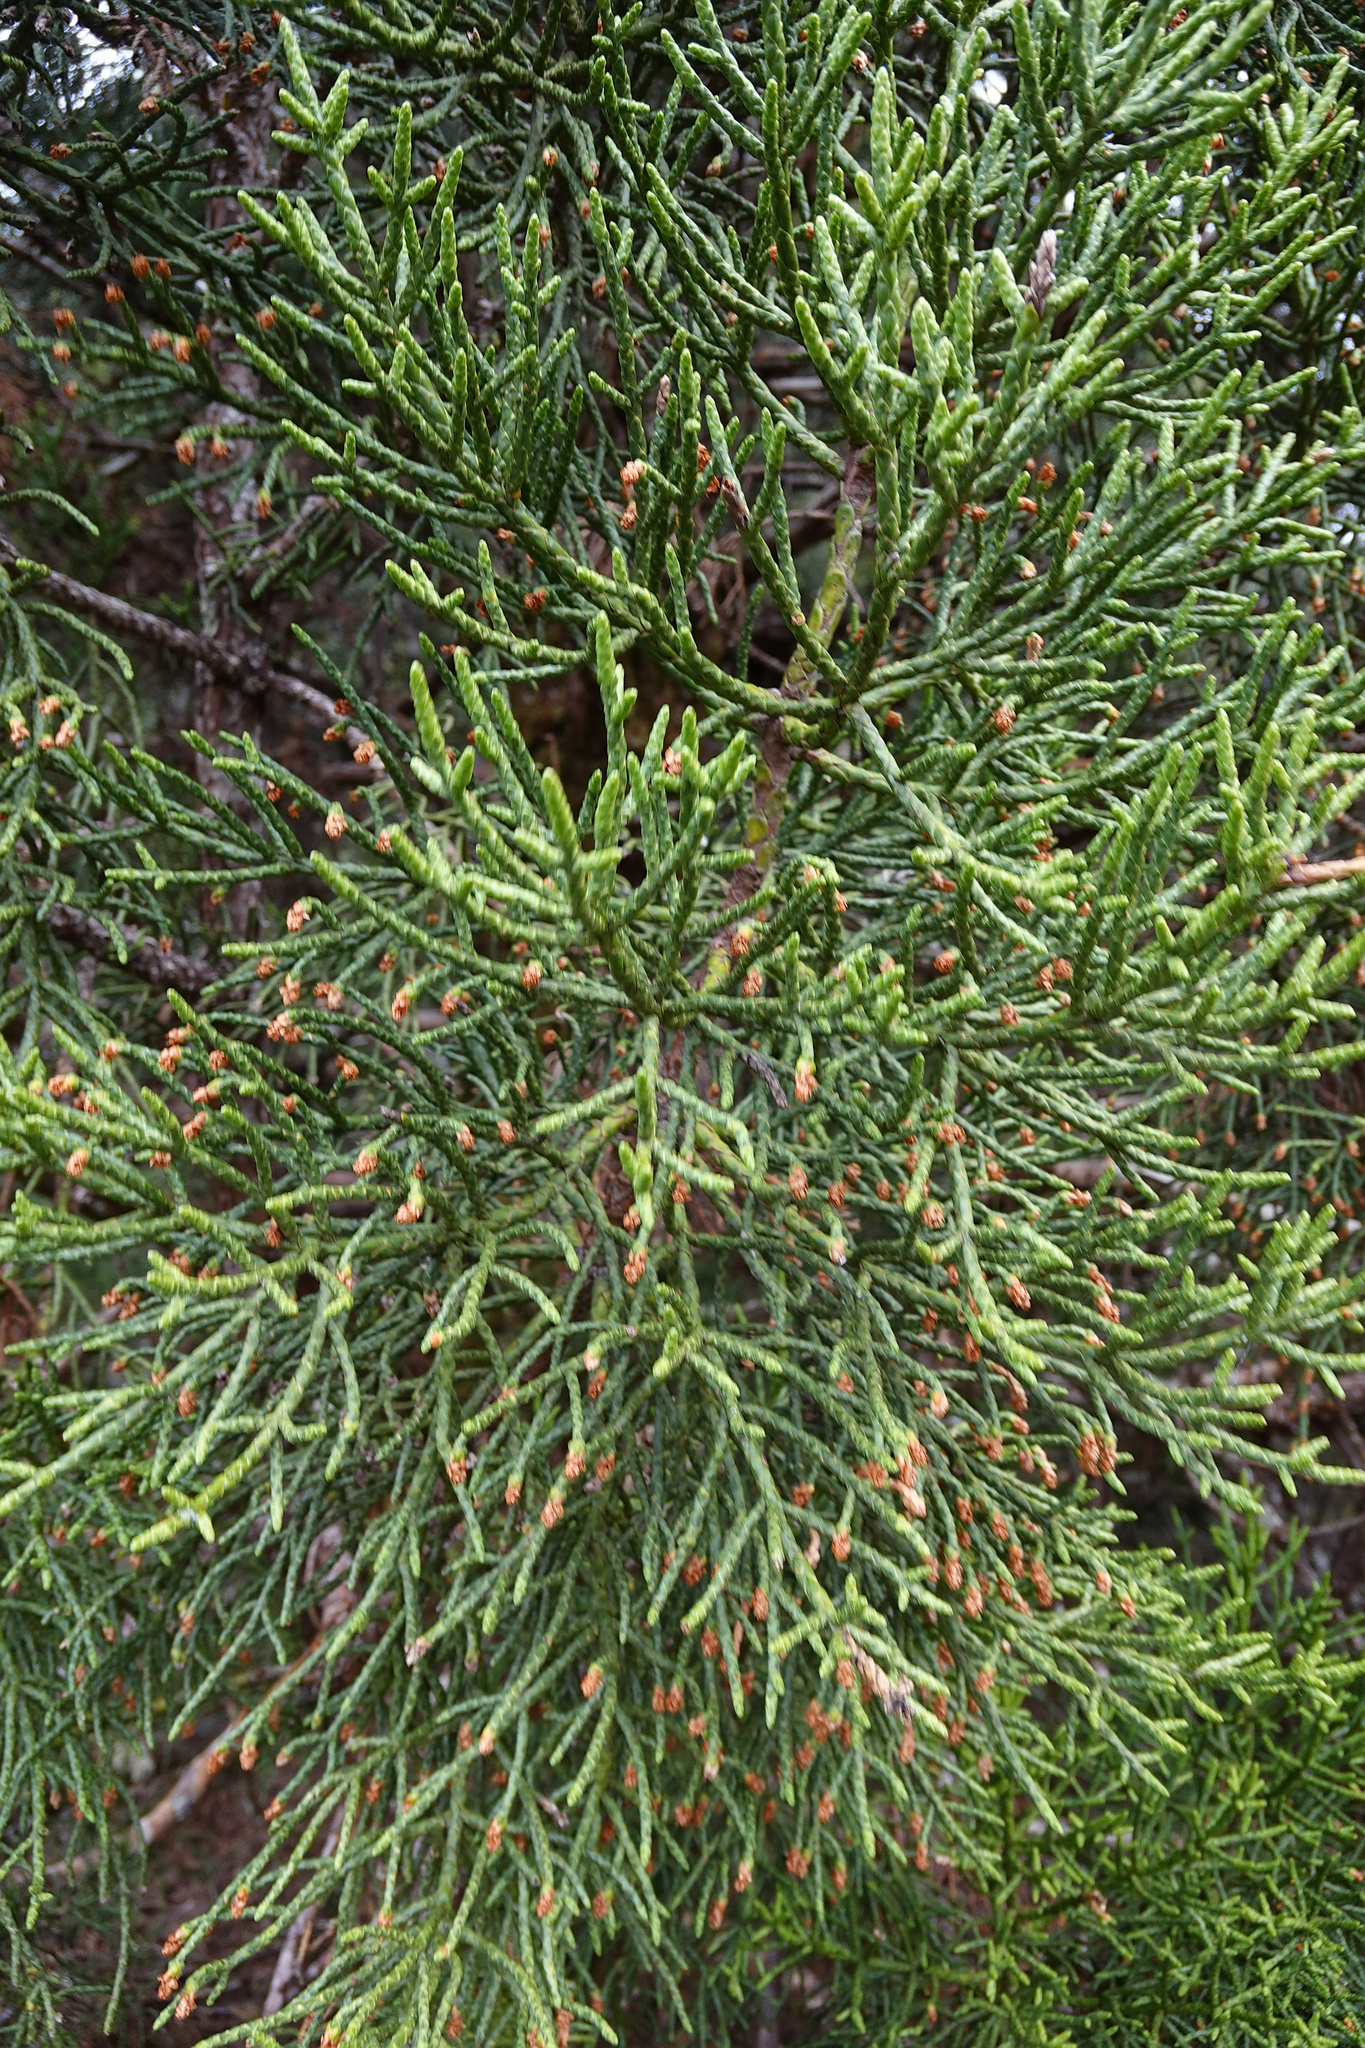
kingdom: Plantae
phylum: Tracheophyta
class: Pinopsida
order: Pinales
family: Cupressaceae
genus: Athrotaxis
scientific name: Athrotaxis cupressoides
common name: Tasmanian pencil pine
